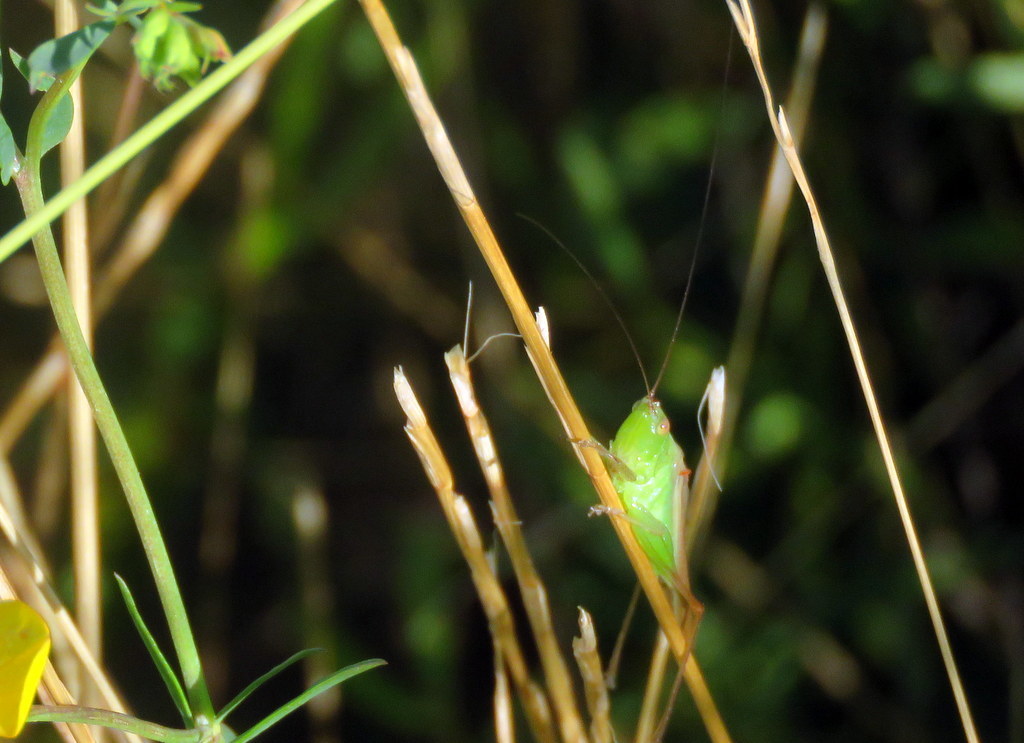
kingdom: Animalia
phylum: Arthropoda
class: Insecta
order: Orthoptera
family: Tettigoniidae
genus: Conocephalus
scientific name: Conocephalus longipes
